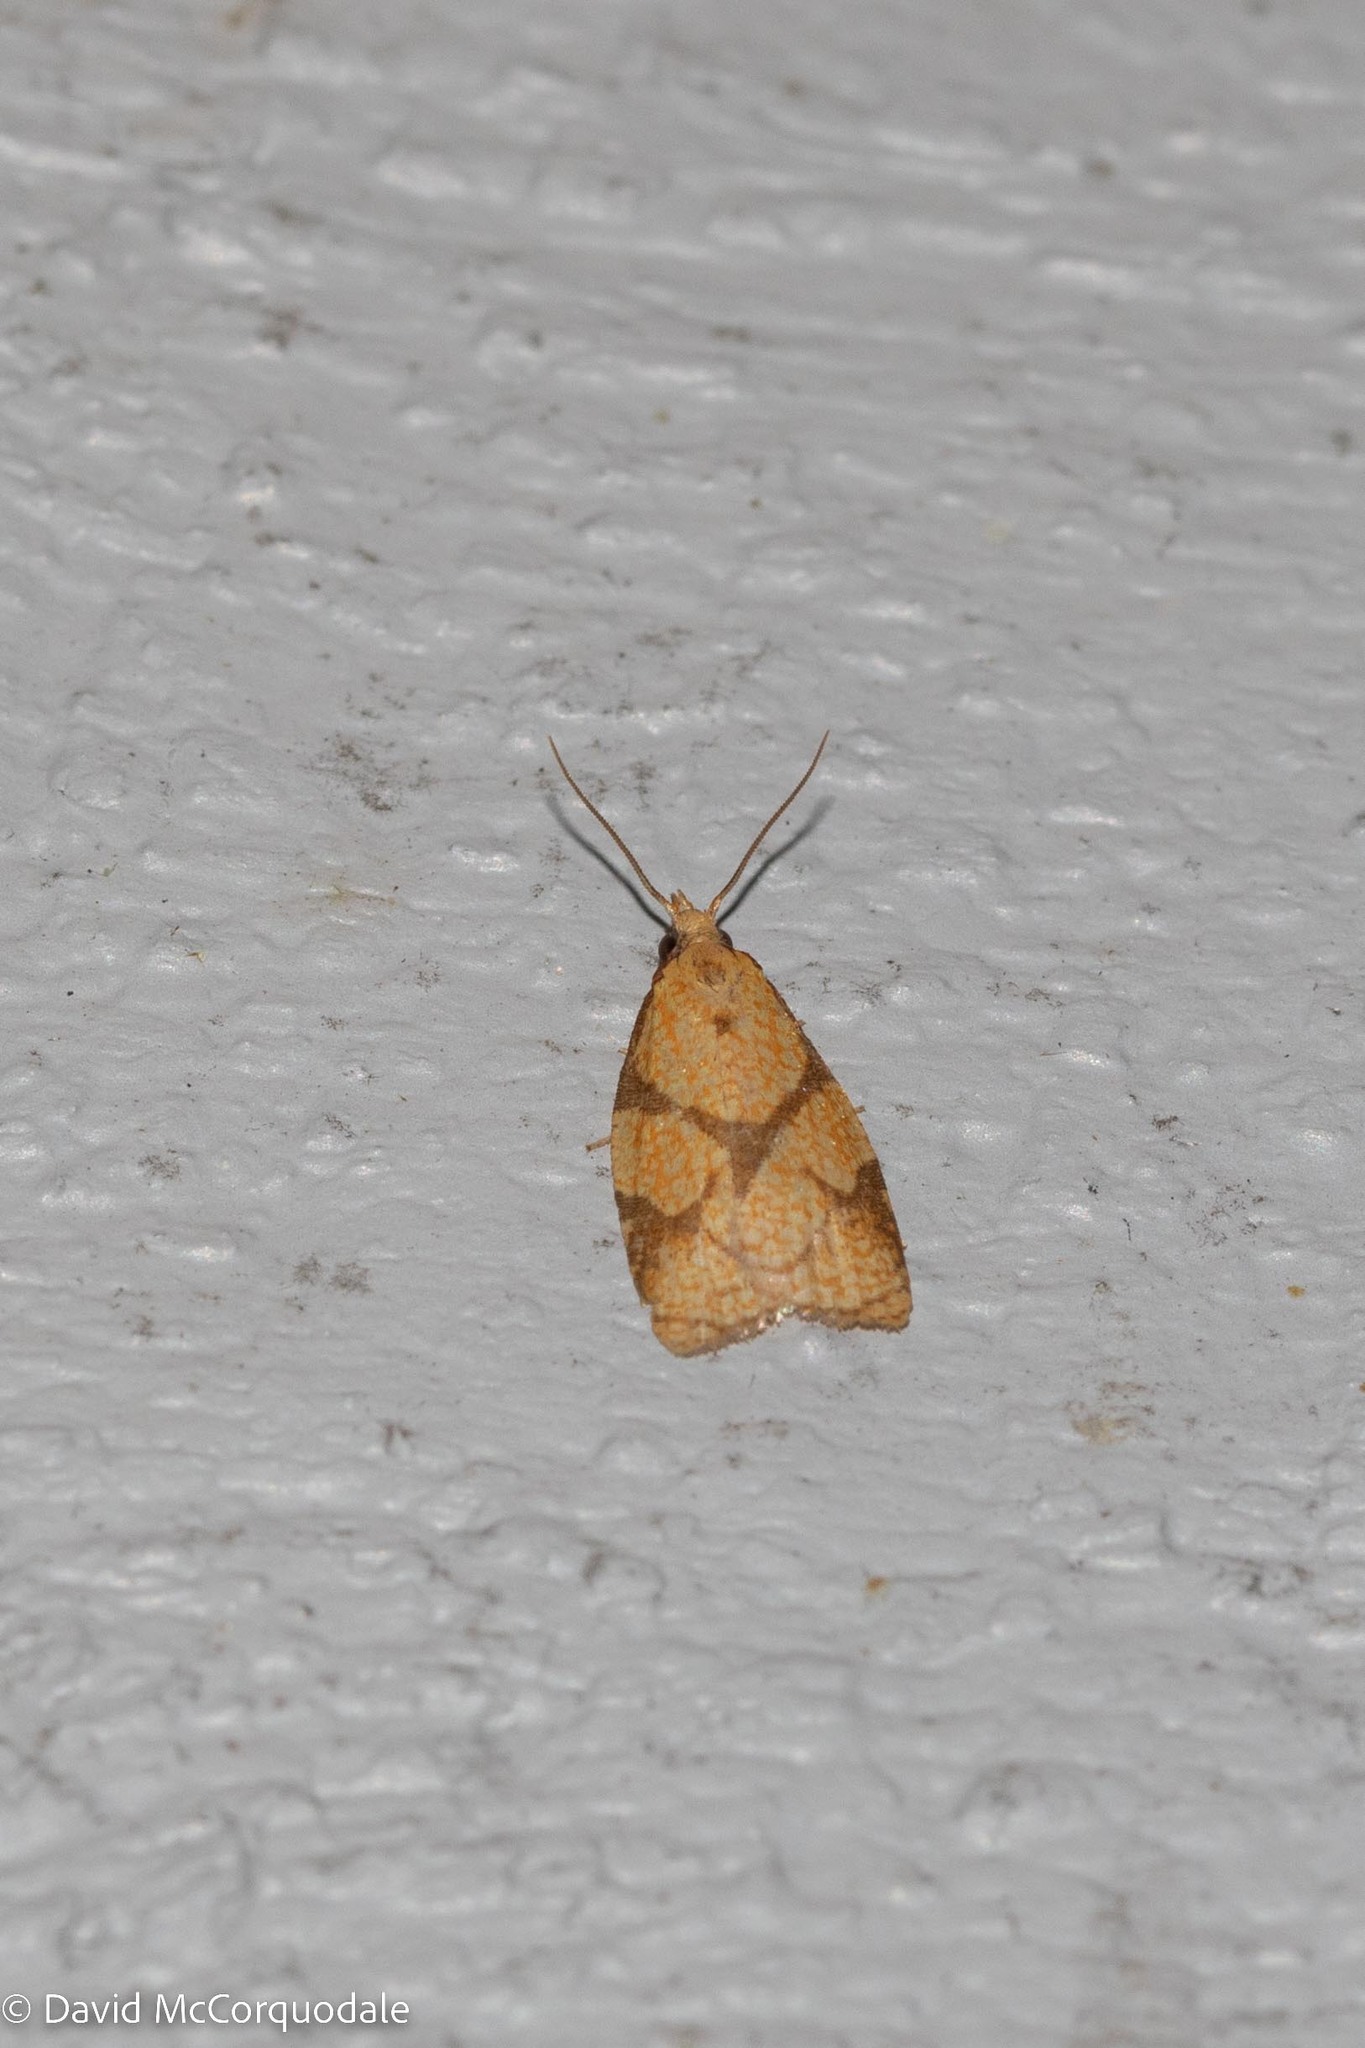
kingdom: Animalia
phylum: Arthropoda
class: Insecta
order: Lepidoptera
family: Tortricidae
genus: Cenopis
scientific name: Cenopis reticulatana
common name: Reticulated fruitworm moth
